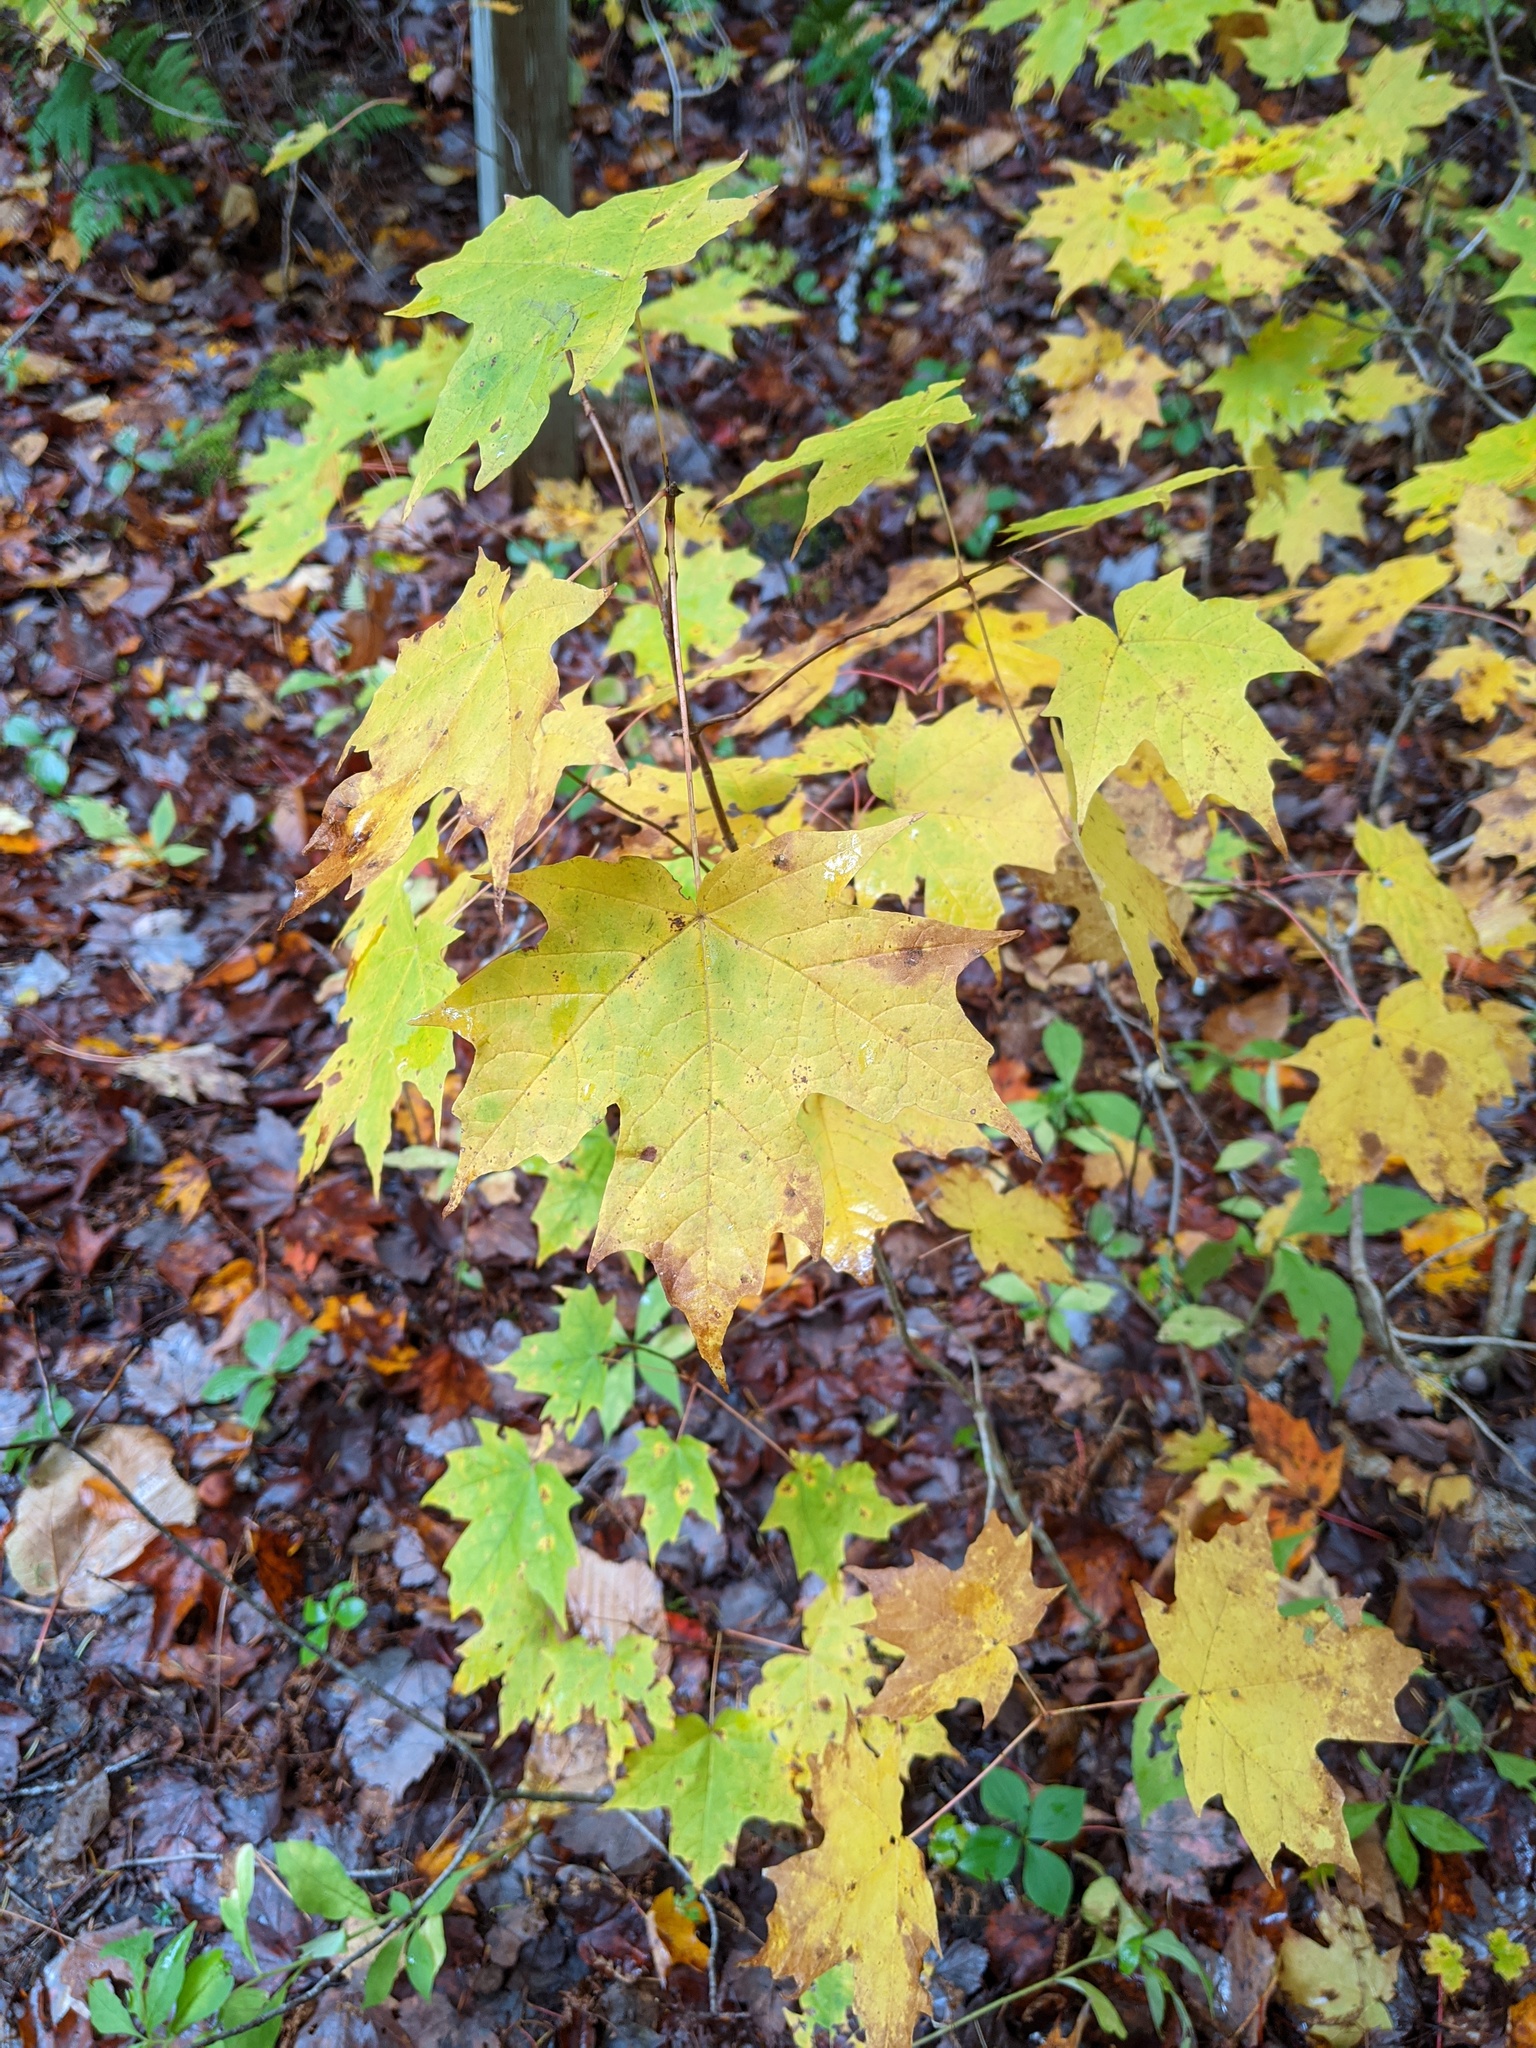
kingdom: Plantae
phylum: Tracheophyta
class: Magnoliopsida
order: Sapindales
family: Sapindaceae
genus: Acer
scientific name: Acer saccharum
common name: Sugar maple
